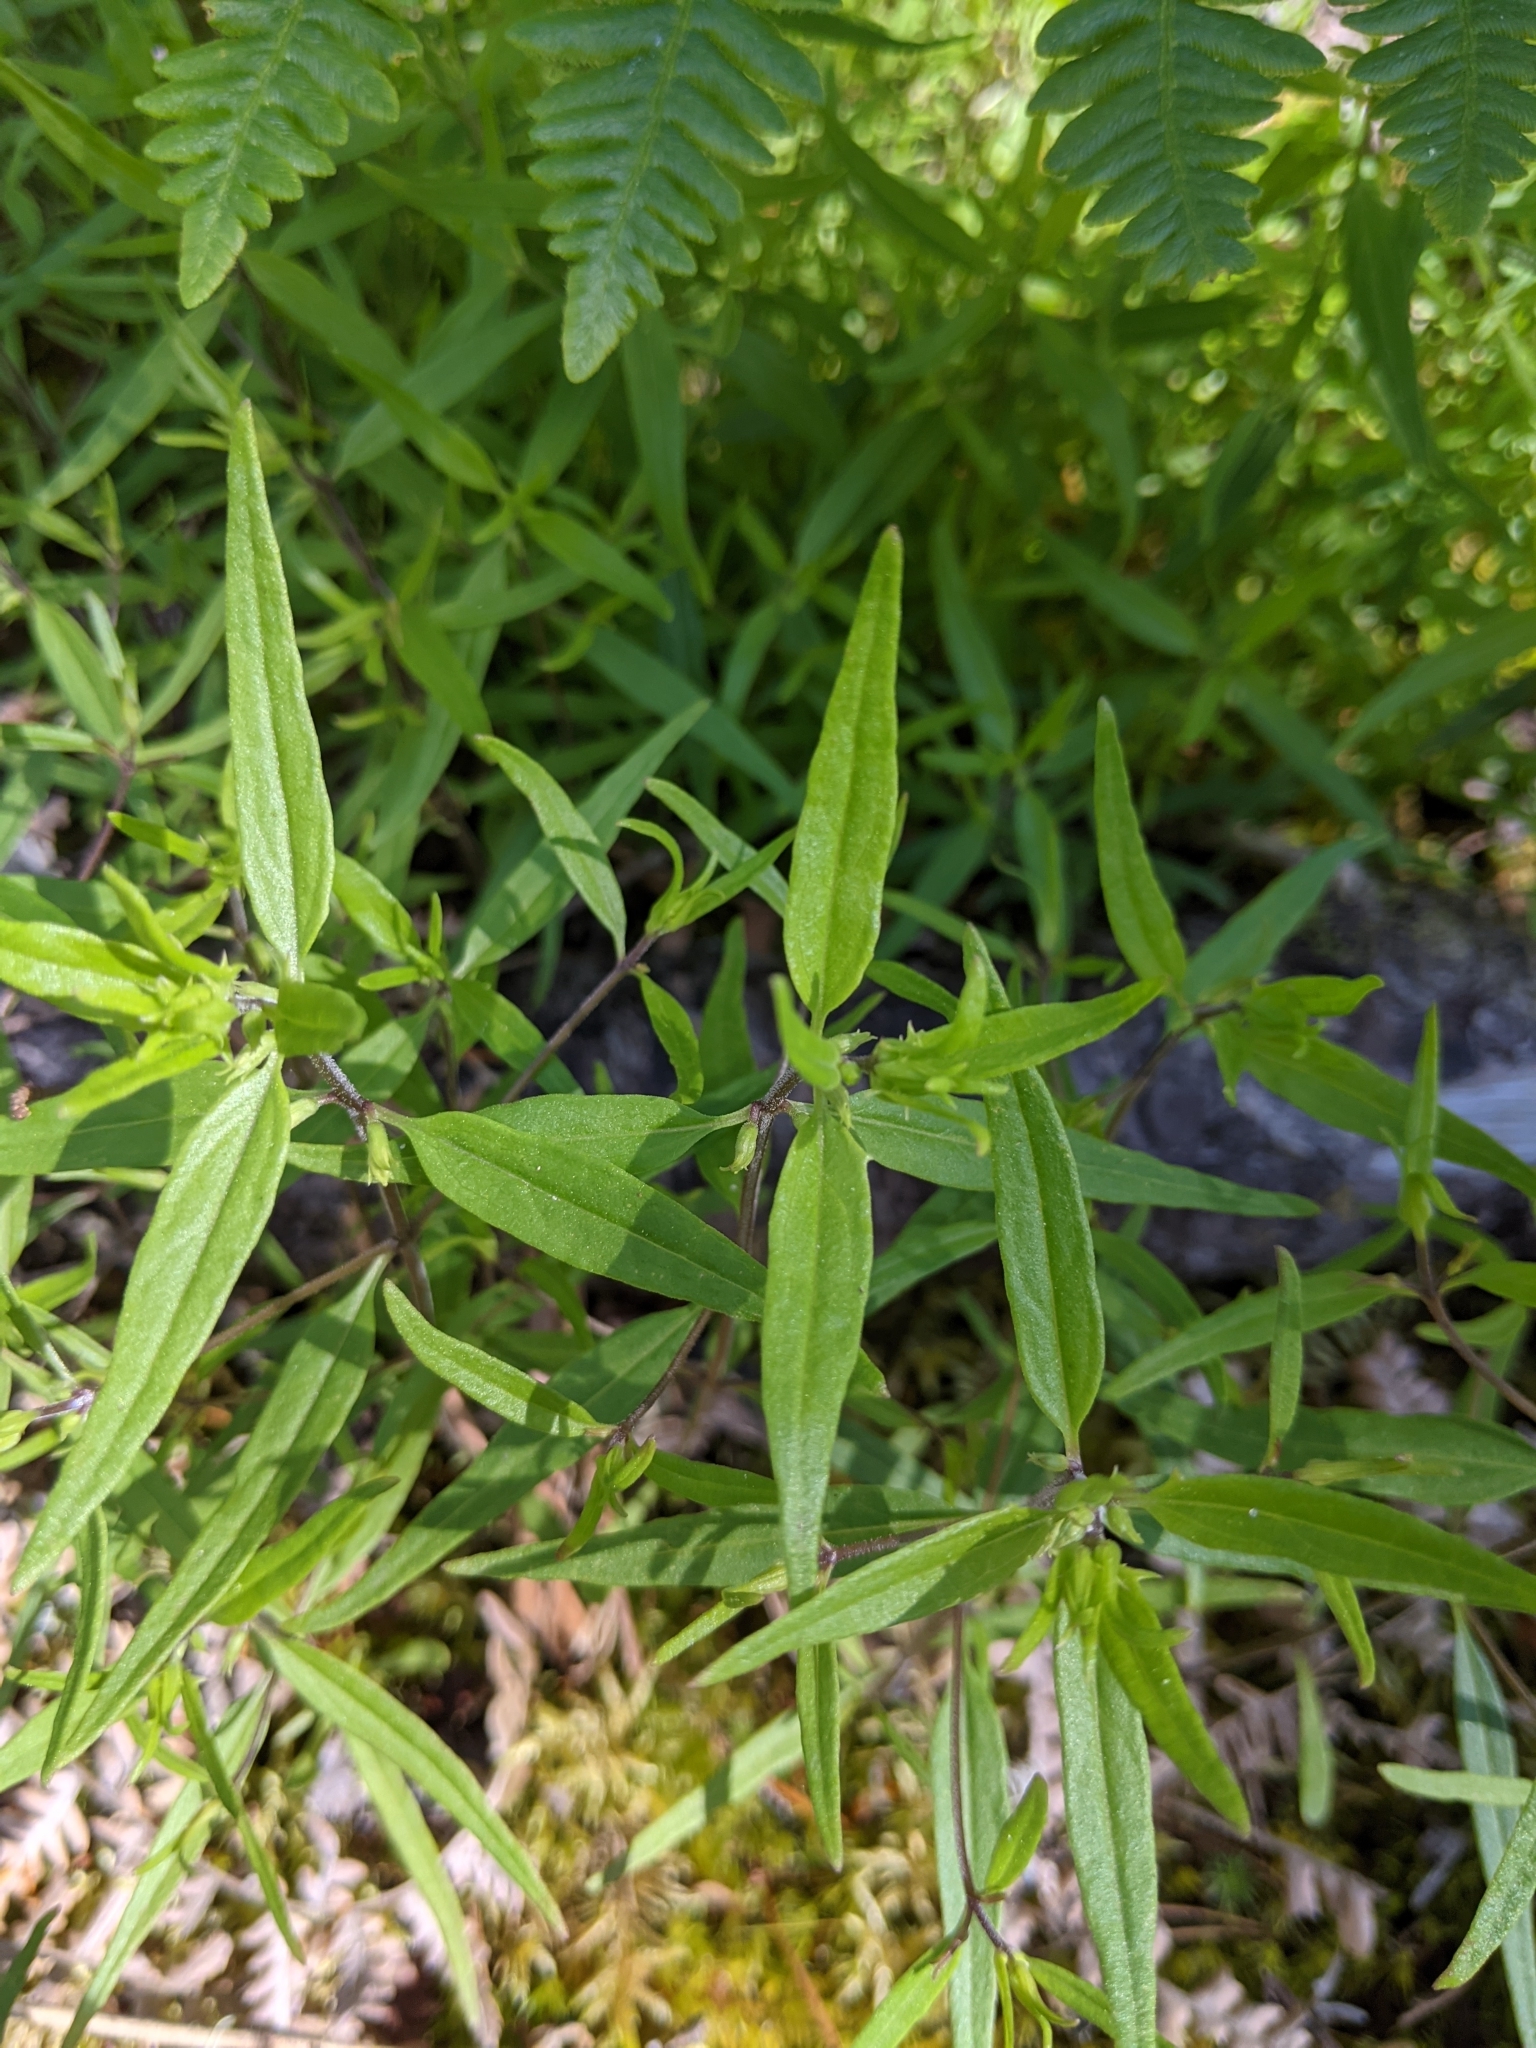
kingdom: Plantae
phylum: Tracheophyta
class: Magnoliopsida
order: Lamiales
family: Orobanchaceae
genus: Melampyrum
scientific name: Melampyrum lineare
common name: American cow-wheat
